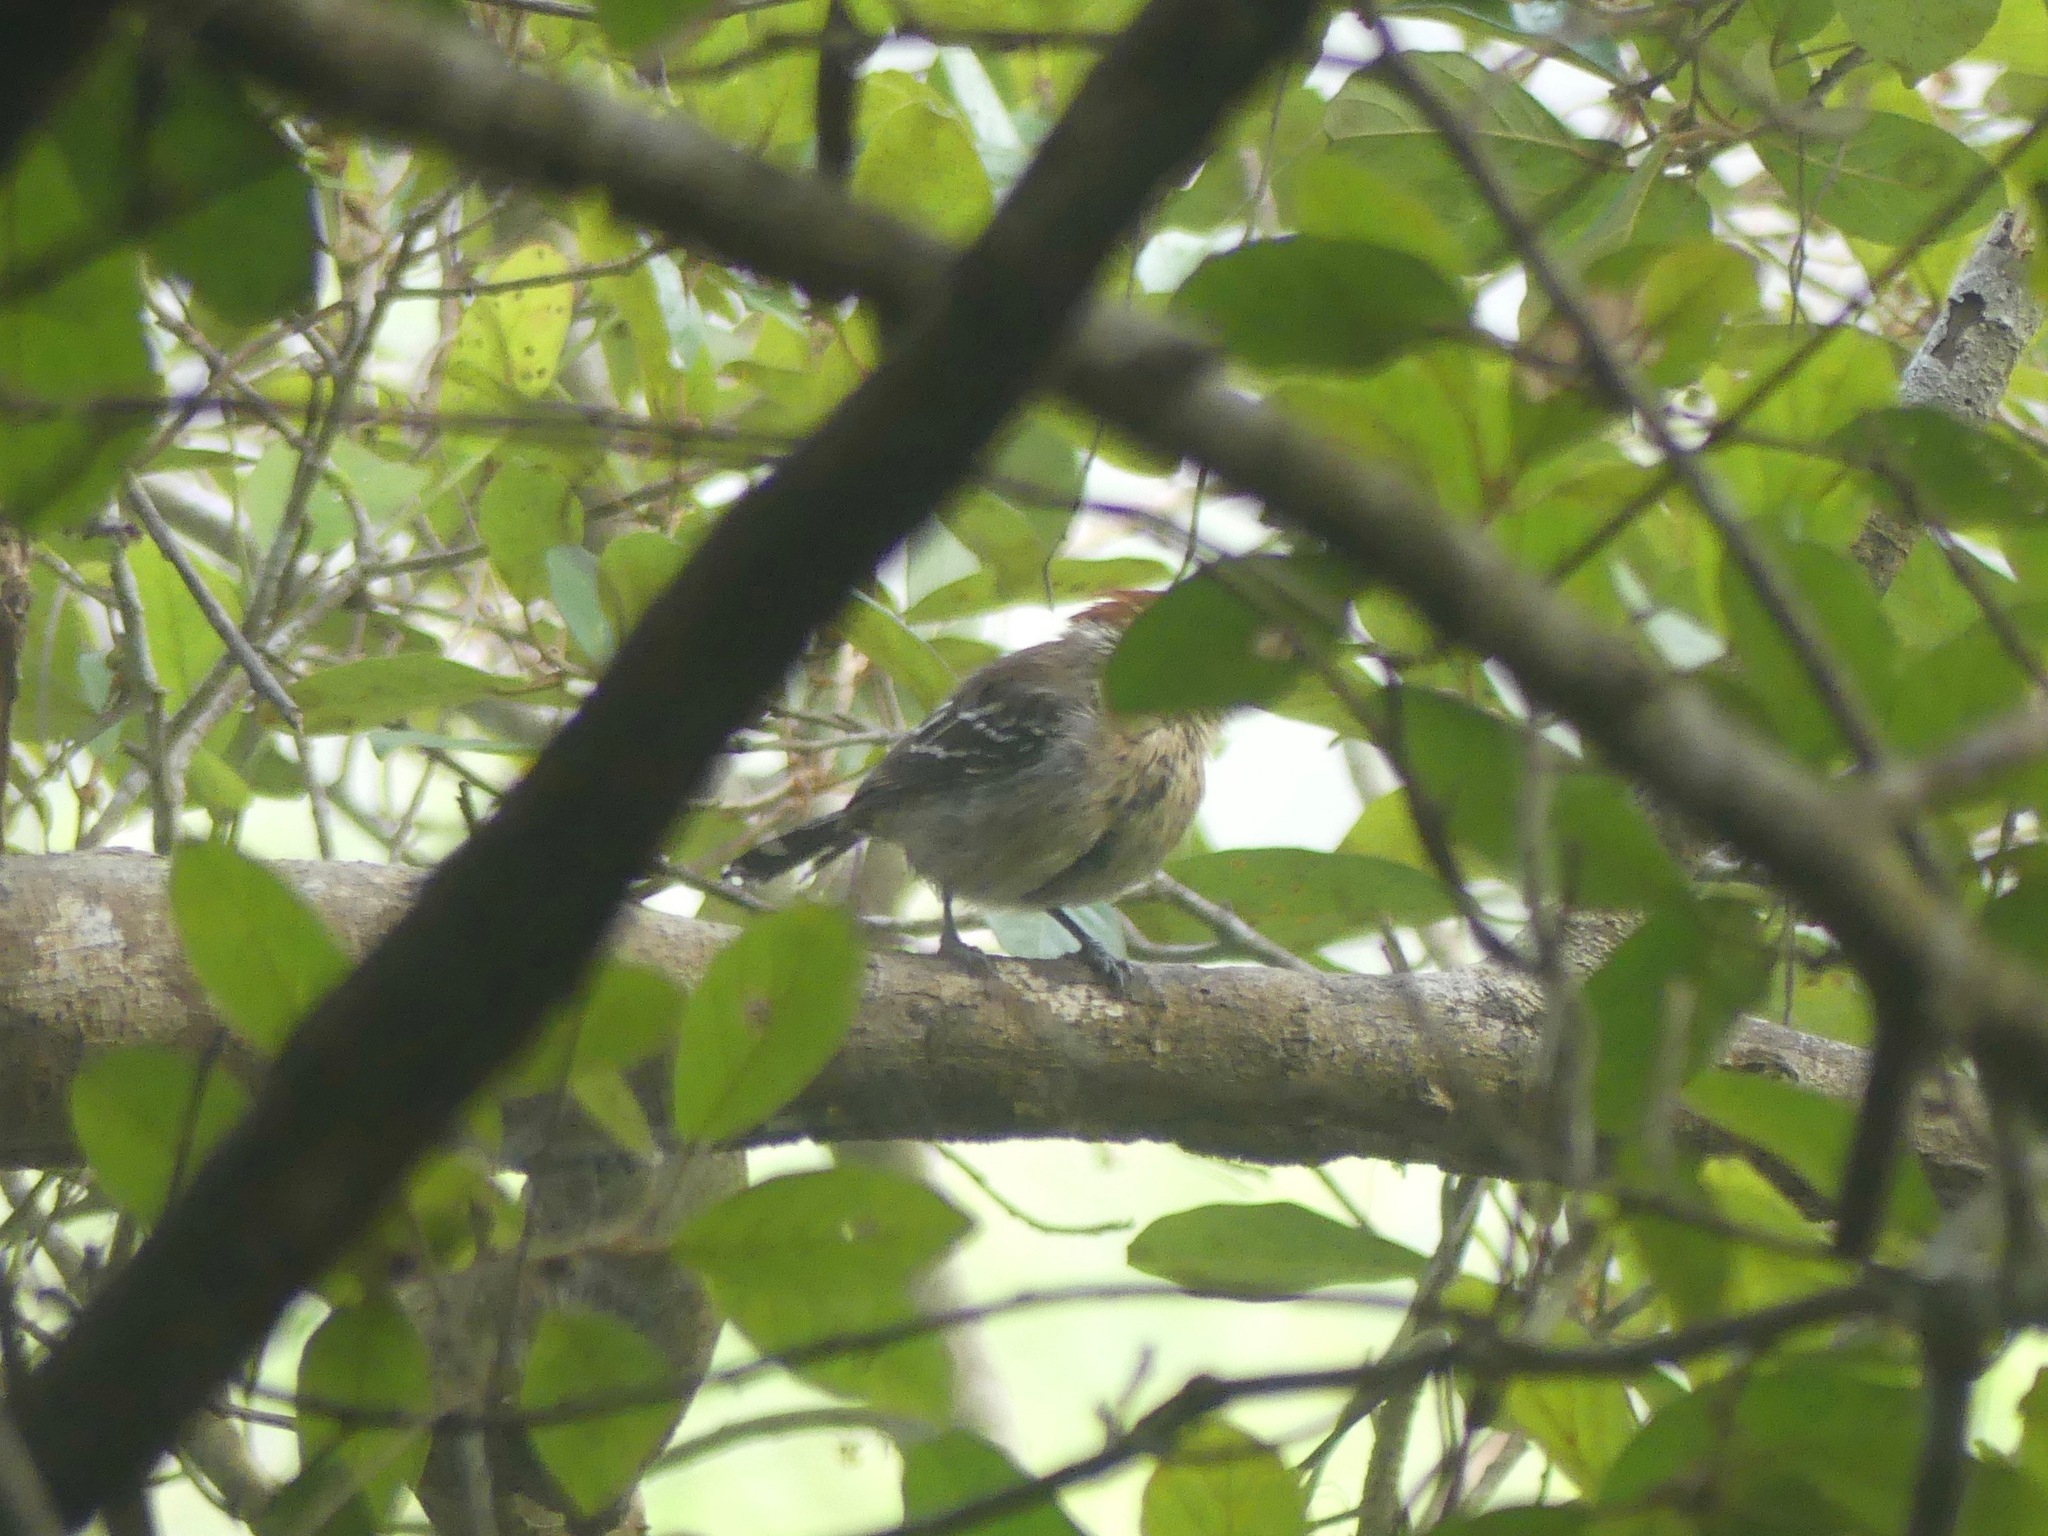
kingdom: Animalia
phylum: Chordata
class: Aves
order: Passeriformes
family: Thamnophilidae
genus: Sakesphorus
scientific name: Sakesphorus canadensis
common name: Black-crested antshrike
